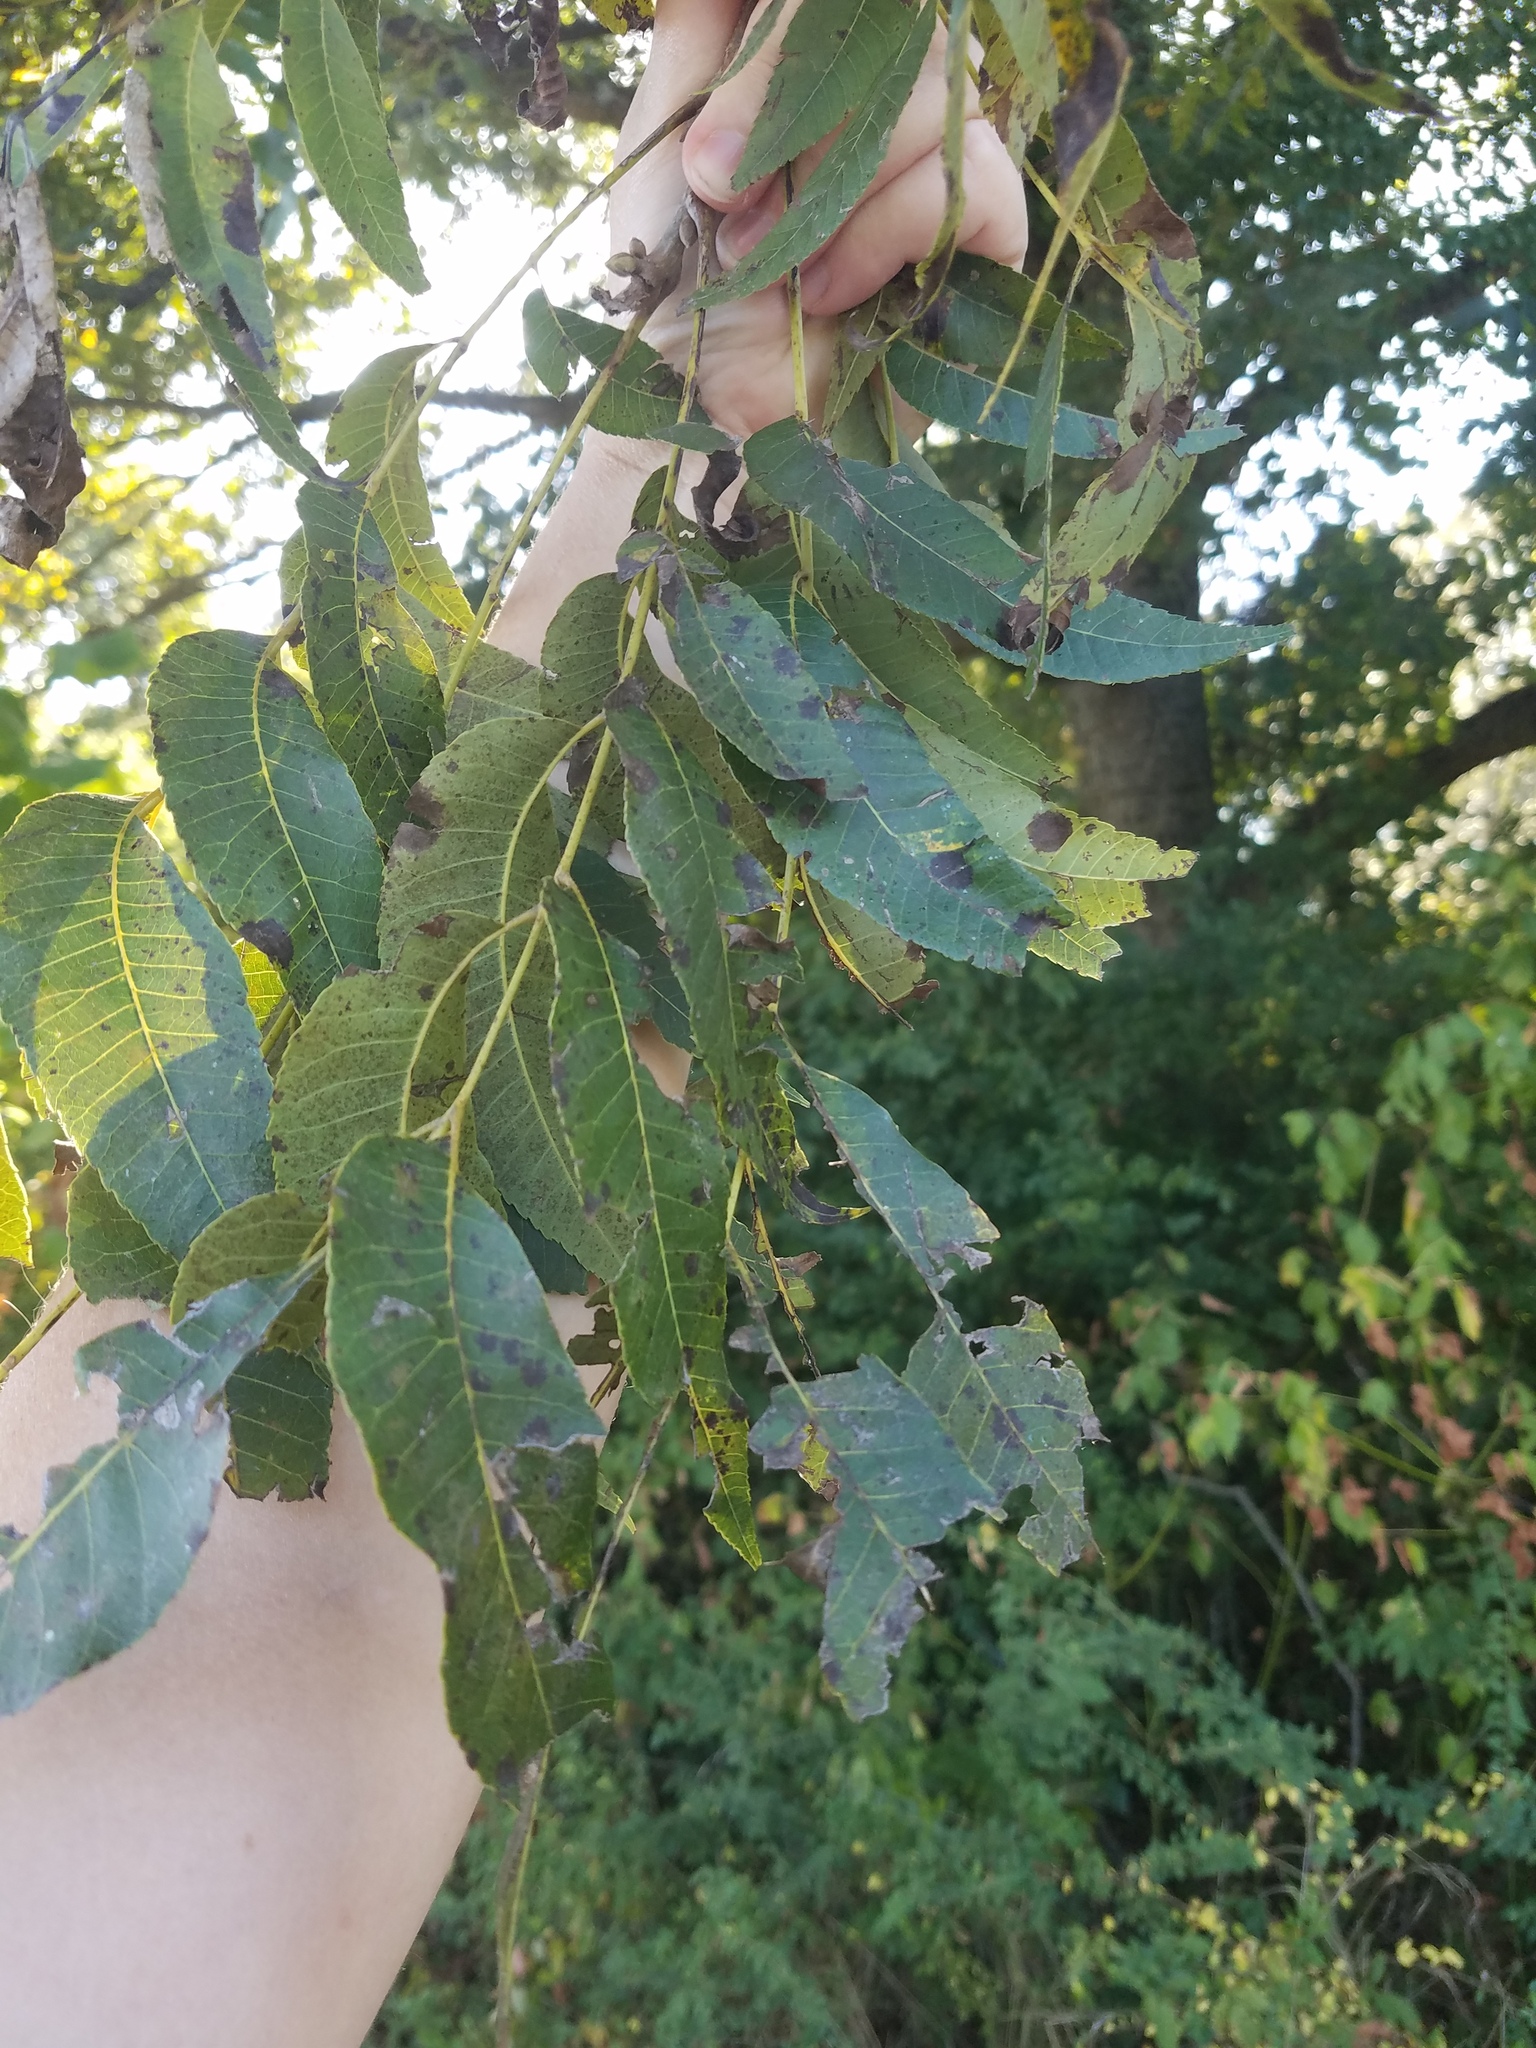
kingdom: Plantae
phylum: Tracheophyta
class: Magnoliopsida
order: Fagales
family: Juglandaceae
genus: Carya
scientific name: Carya illinoinensis
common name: Pecan
